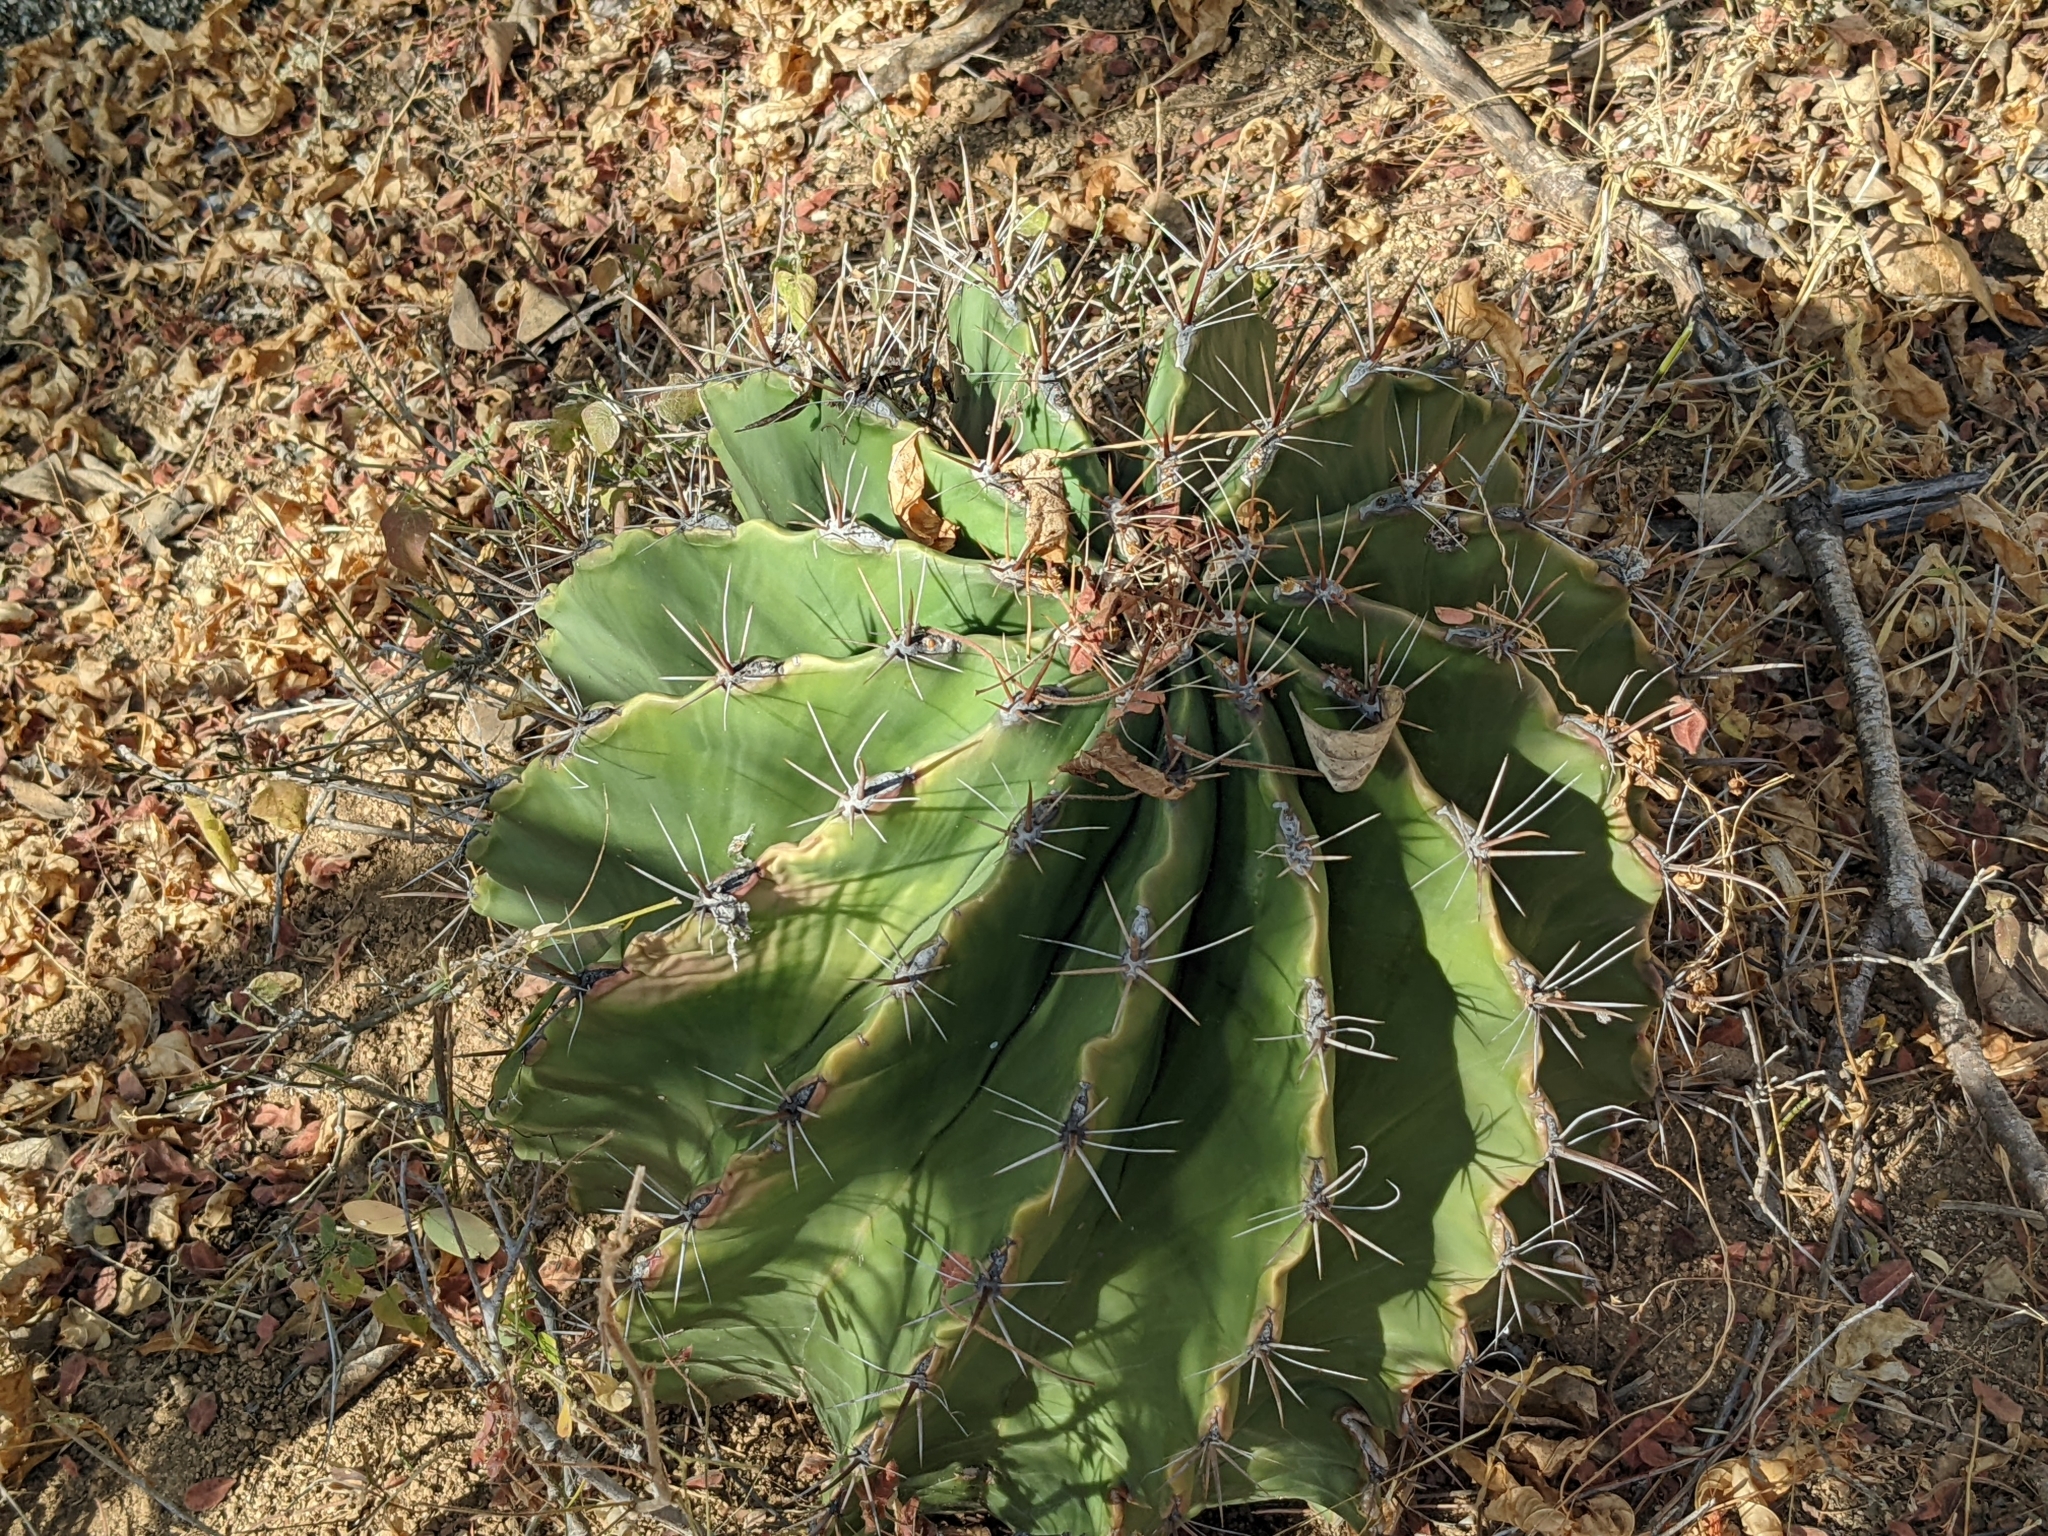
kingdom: Plantae
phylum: Tracheophyta
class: Magnoliopsida
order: Caryophyllales
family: Cactaceae
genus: Ferocactus
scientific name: Ferocactus townsendianus
